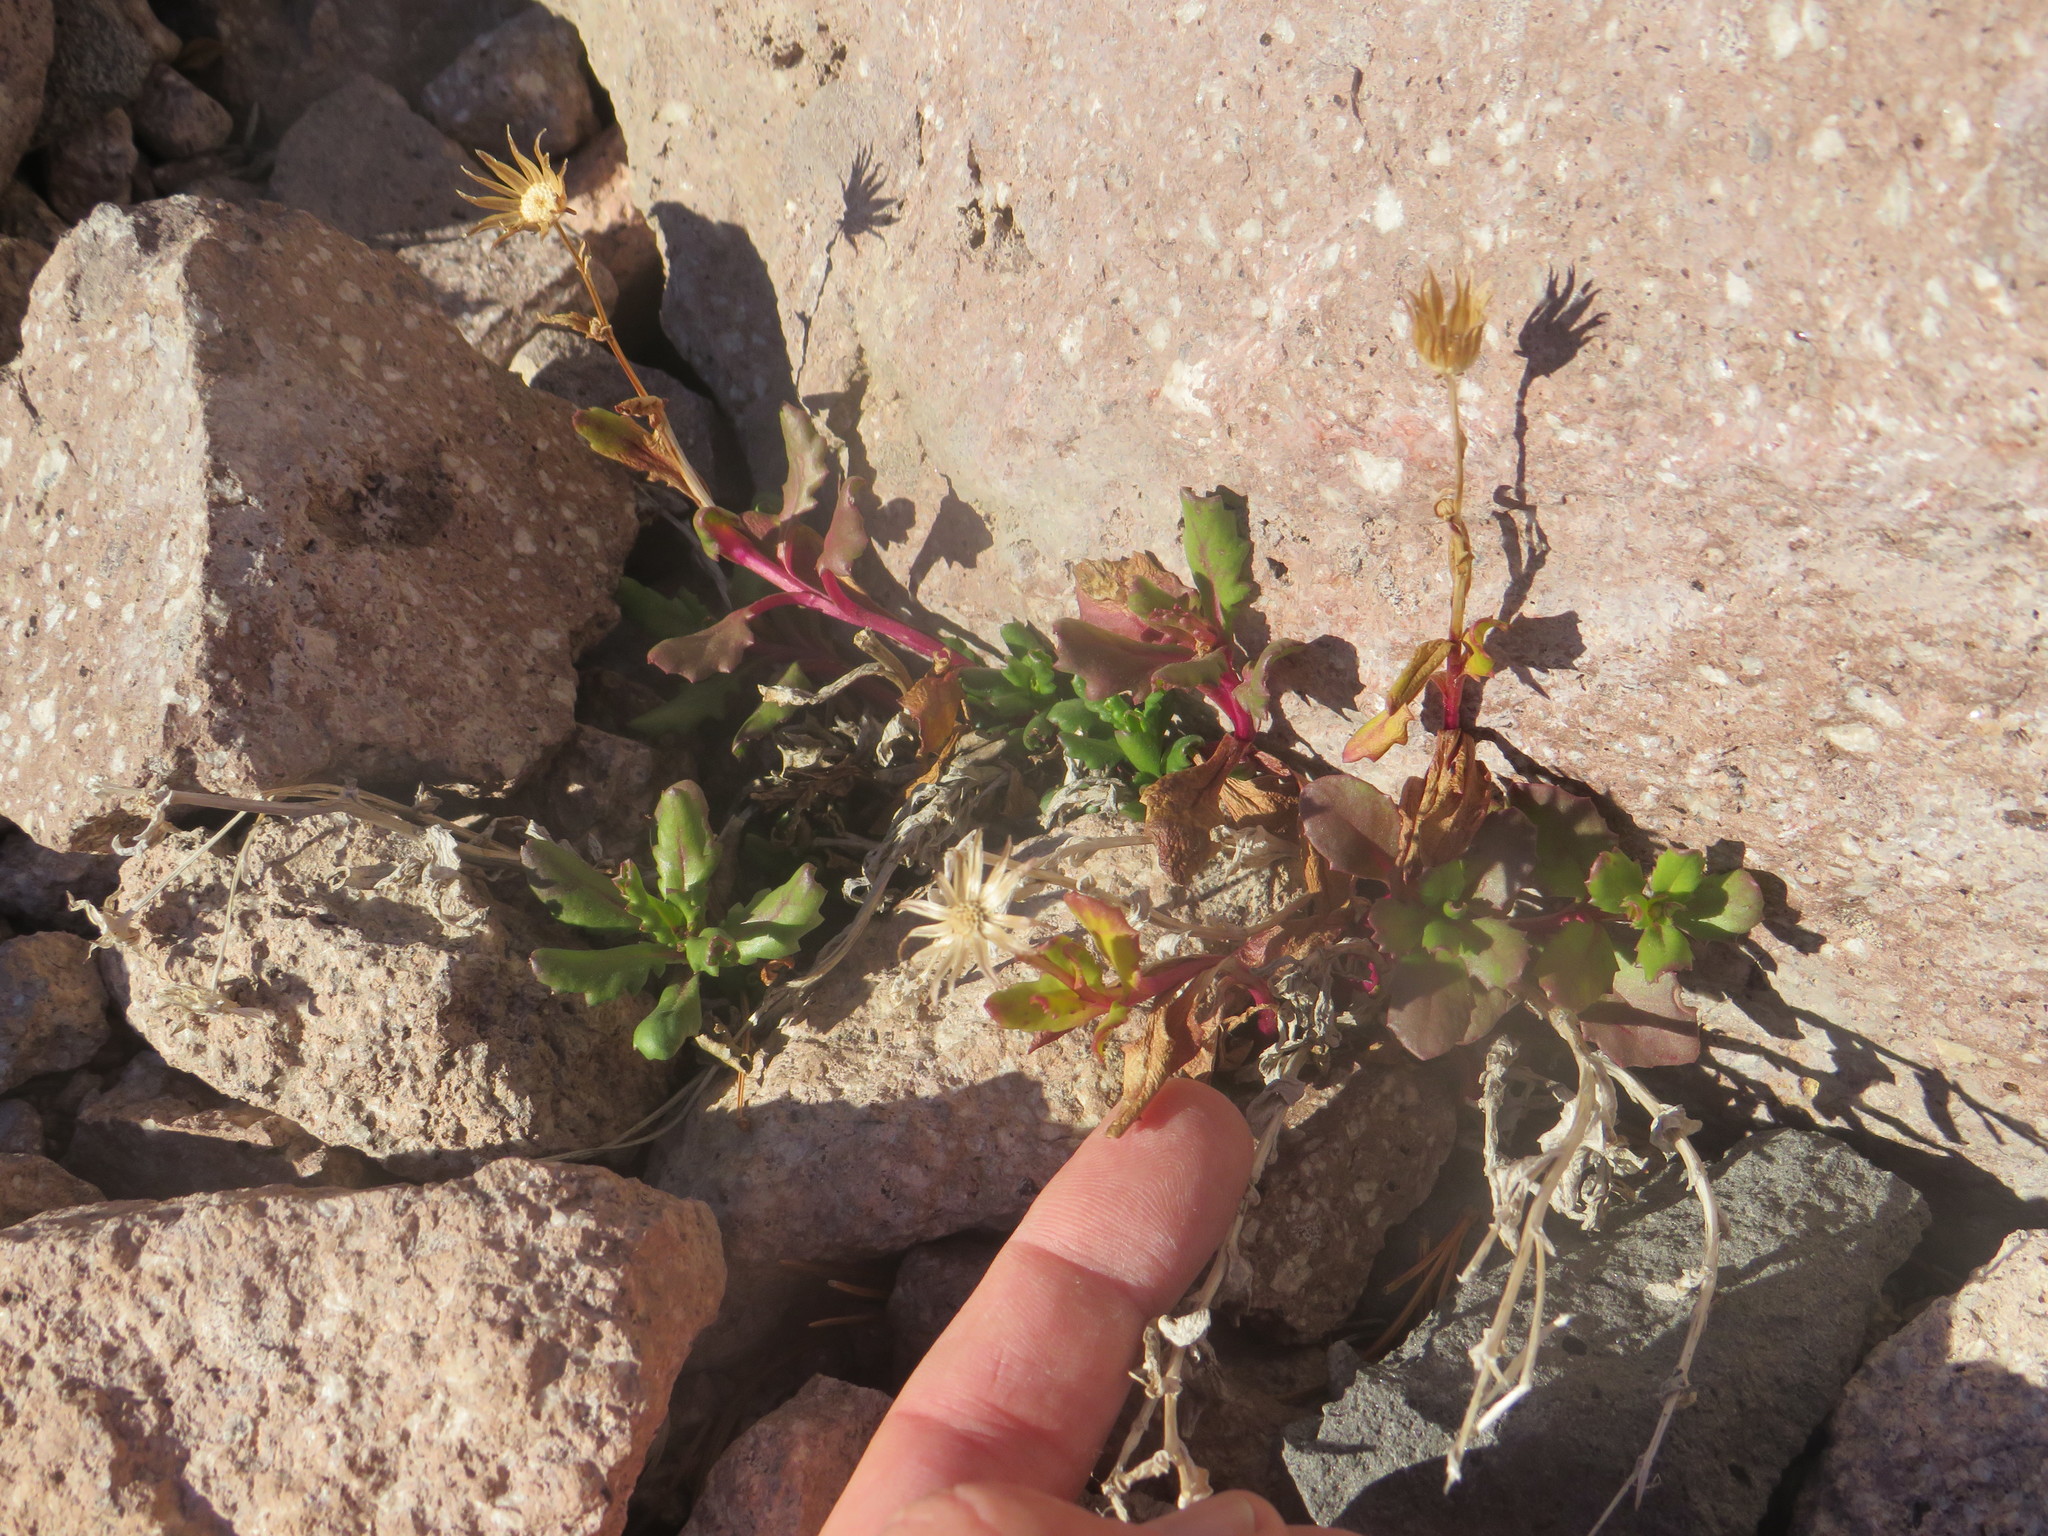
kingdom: Plantae
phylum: Tracheophyta
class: Magnoliopsida
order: Asterales
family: Asteraceae
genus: Senecio
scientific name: Senecio fremontii
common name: Fremont's groundsel
